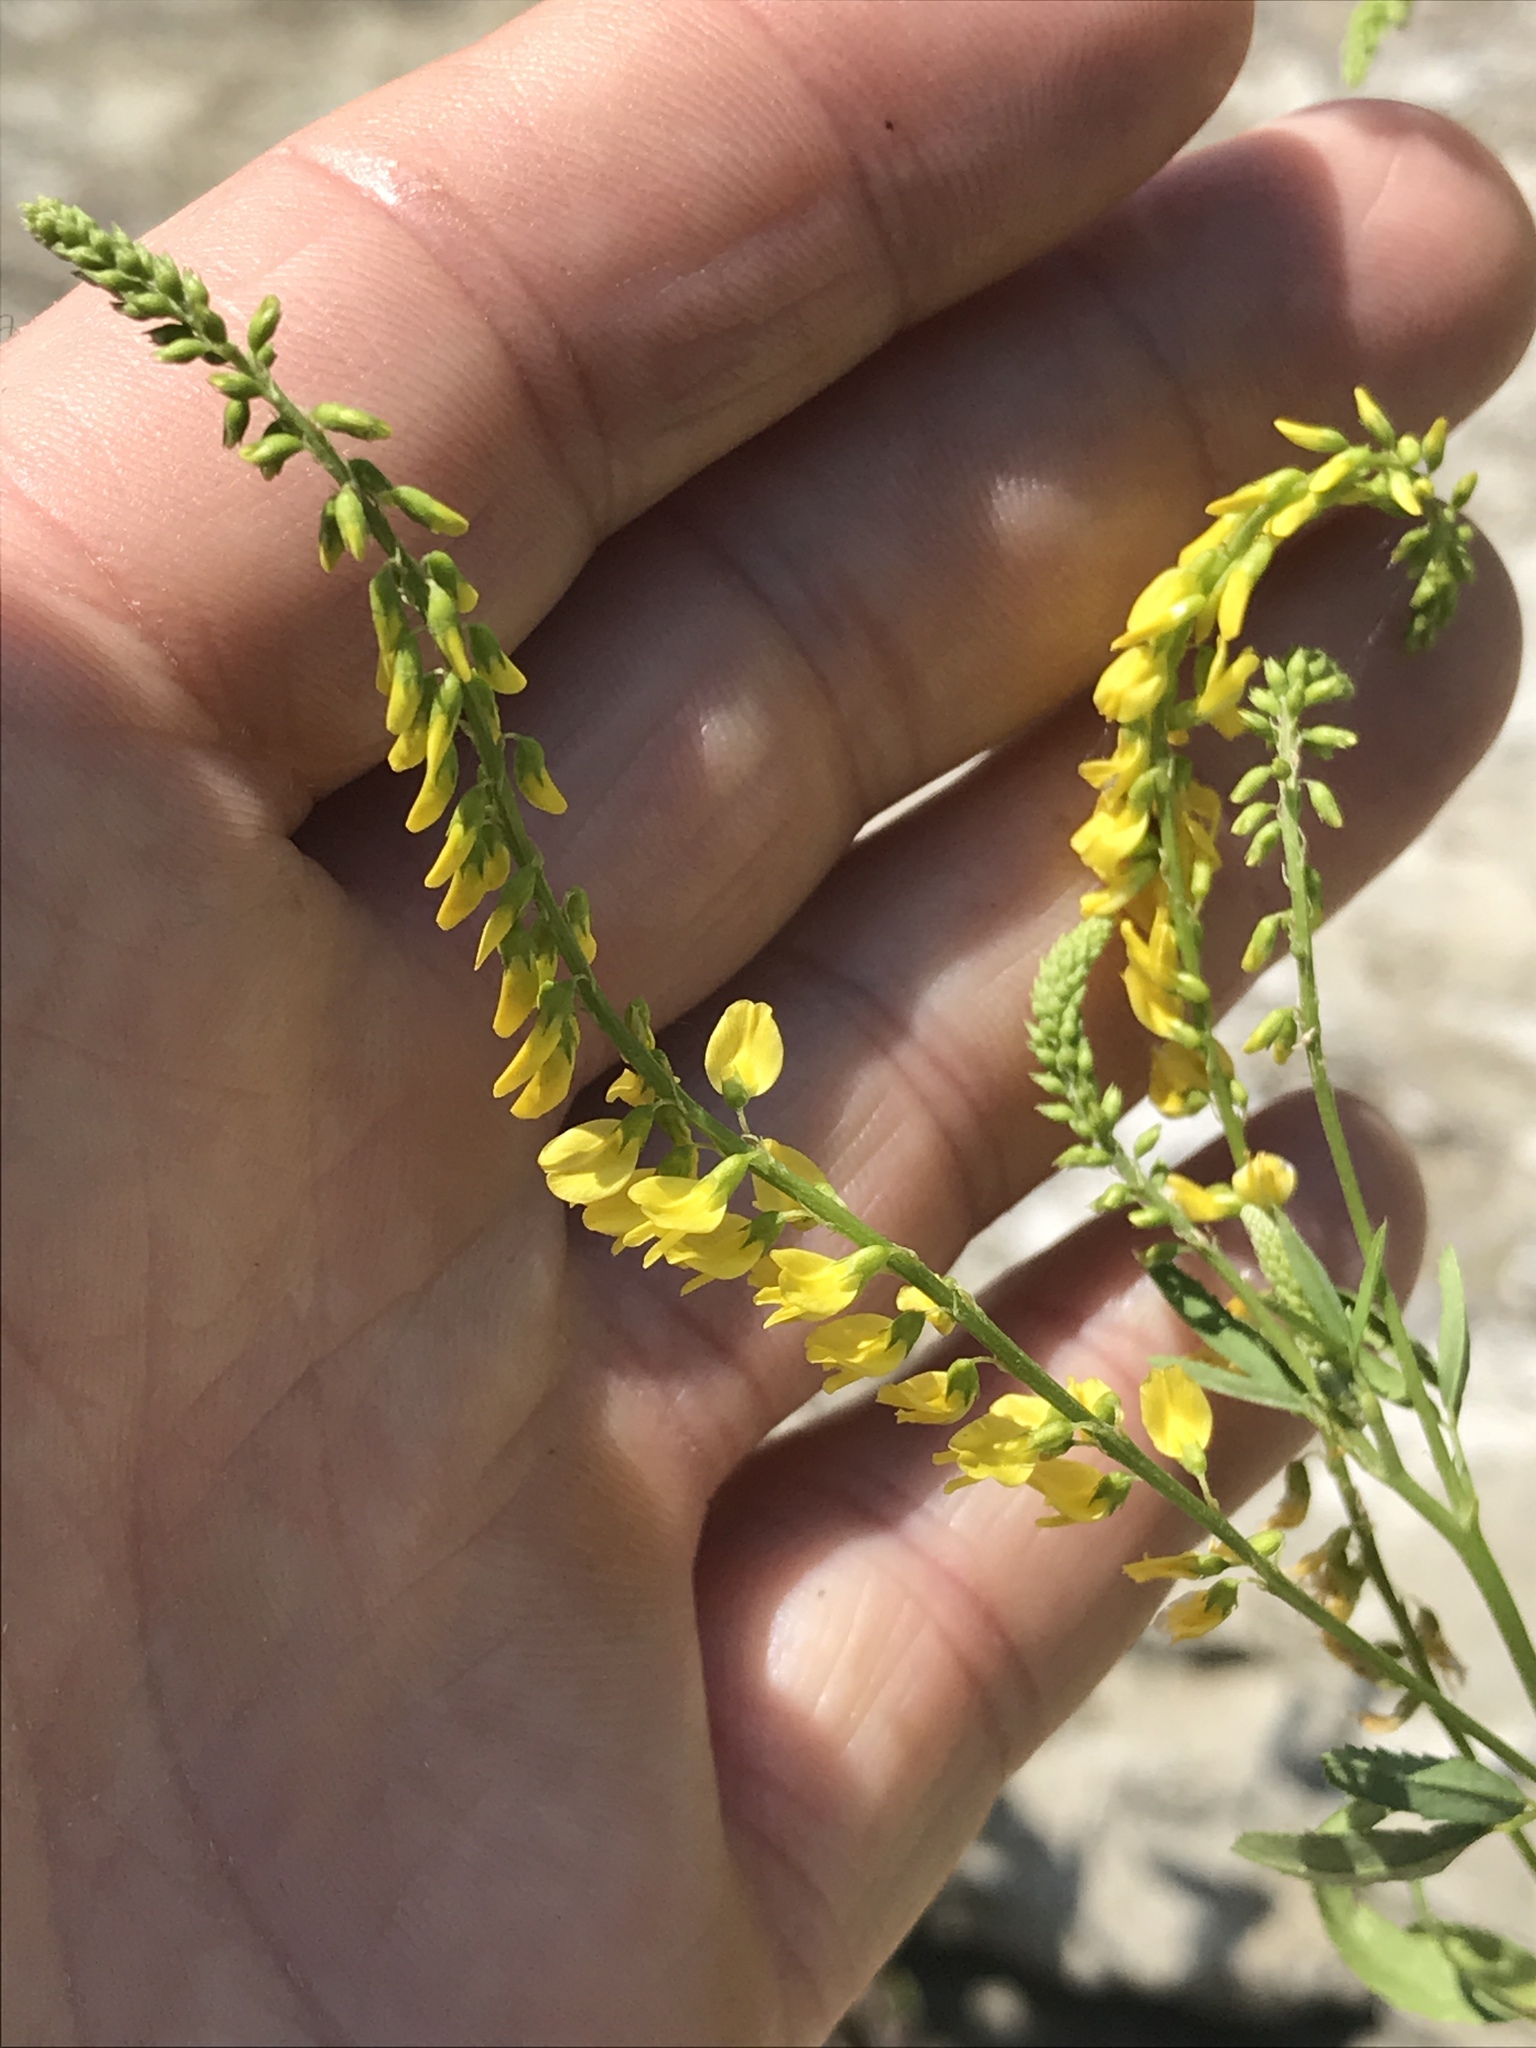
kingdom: Plantae
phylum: Tracheophyta
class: Magnoliopsida
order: Fabales
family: Fabaceae
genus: Melilotus
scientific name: Melilotus officinalis
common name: Sweetclover
